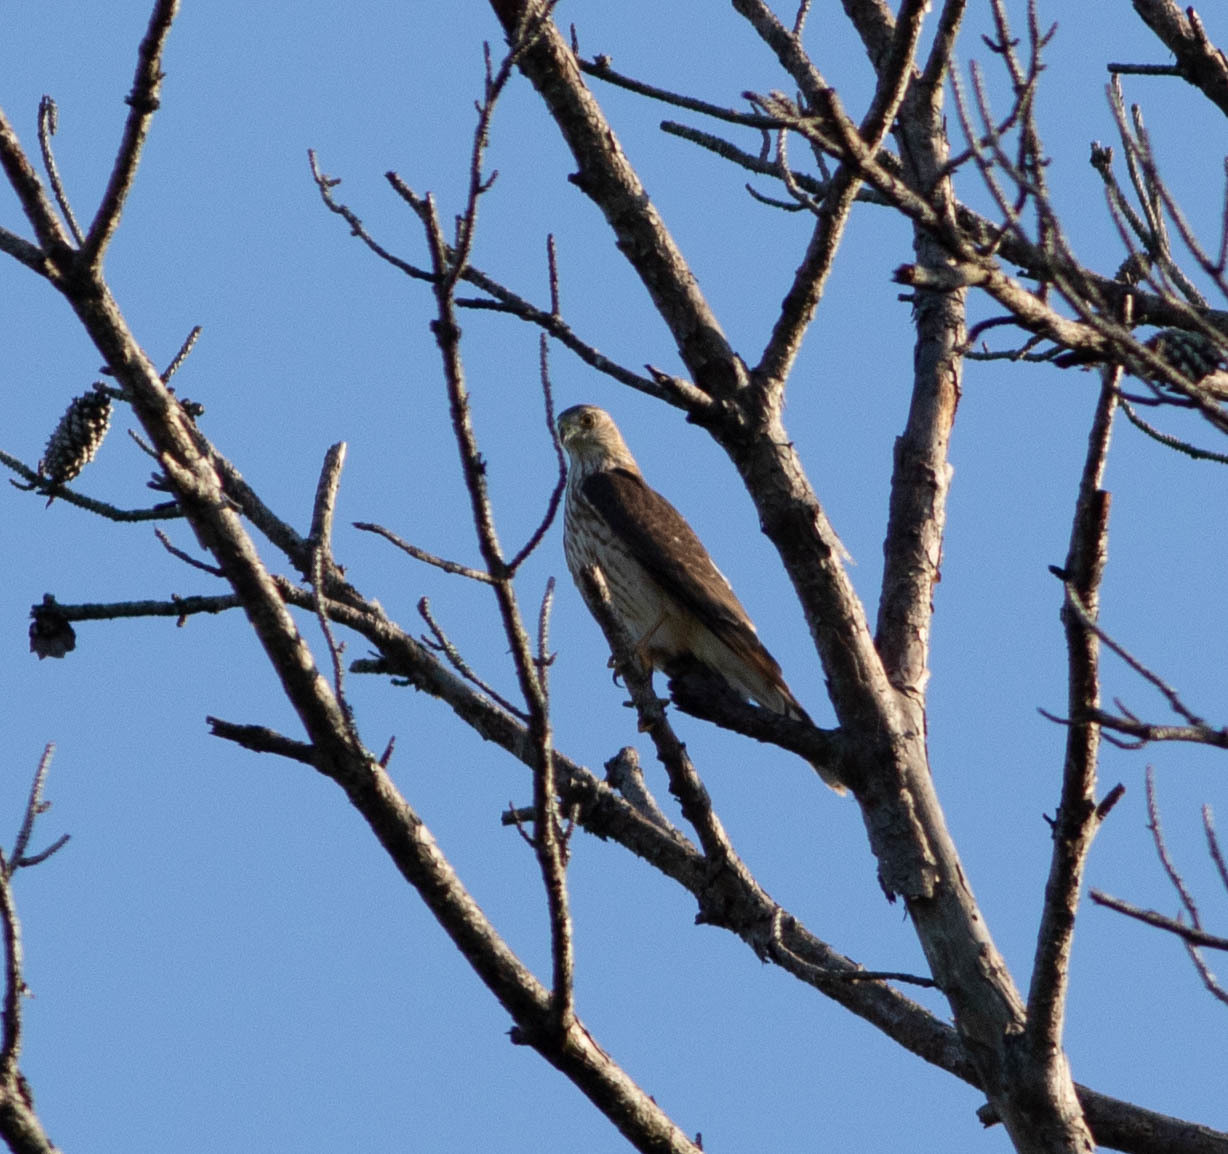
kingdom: Animalia
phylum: Chordata
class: Aves
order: Accipitriformes
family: Accipitridae
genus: Accipiter
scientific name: Accipiter cooperii
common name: Cooper's hawk
